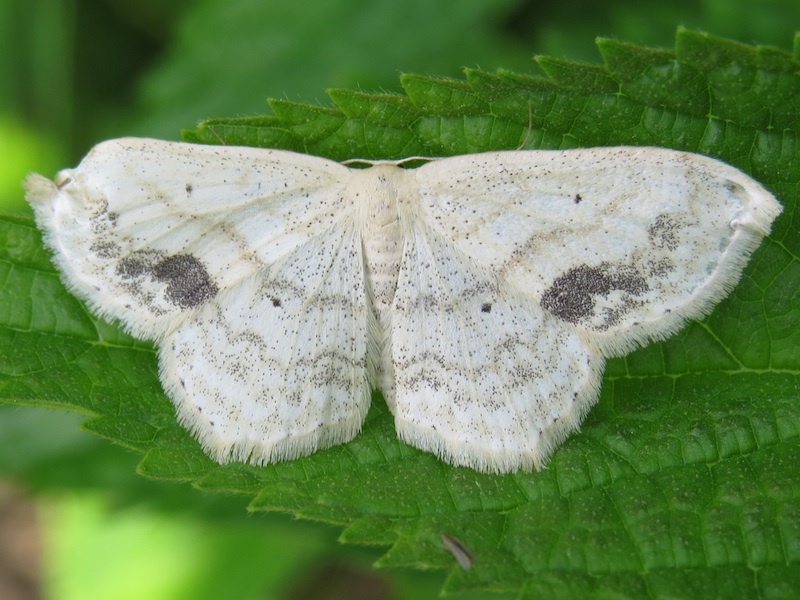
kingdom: Animalia
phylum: Arthropoda
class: Insecta
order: Lepidoptera
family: Geometridae
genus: Scopula
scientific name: Scopula limboundata
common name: Large lace border
